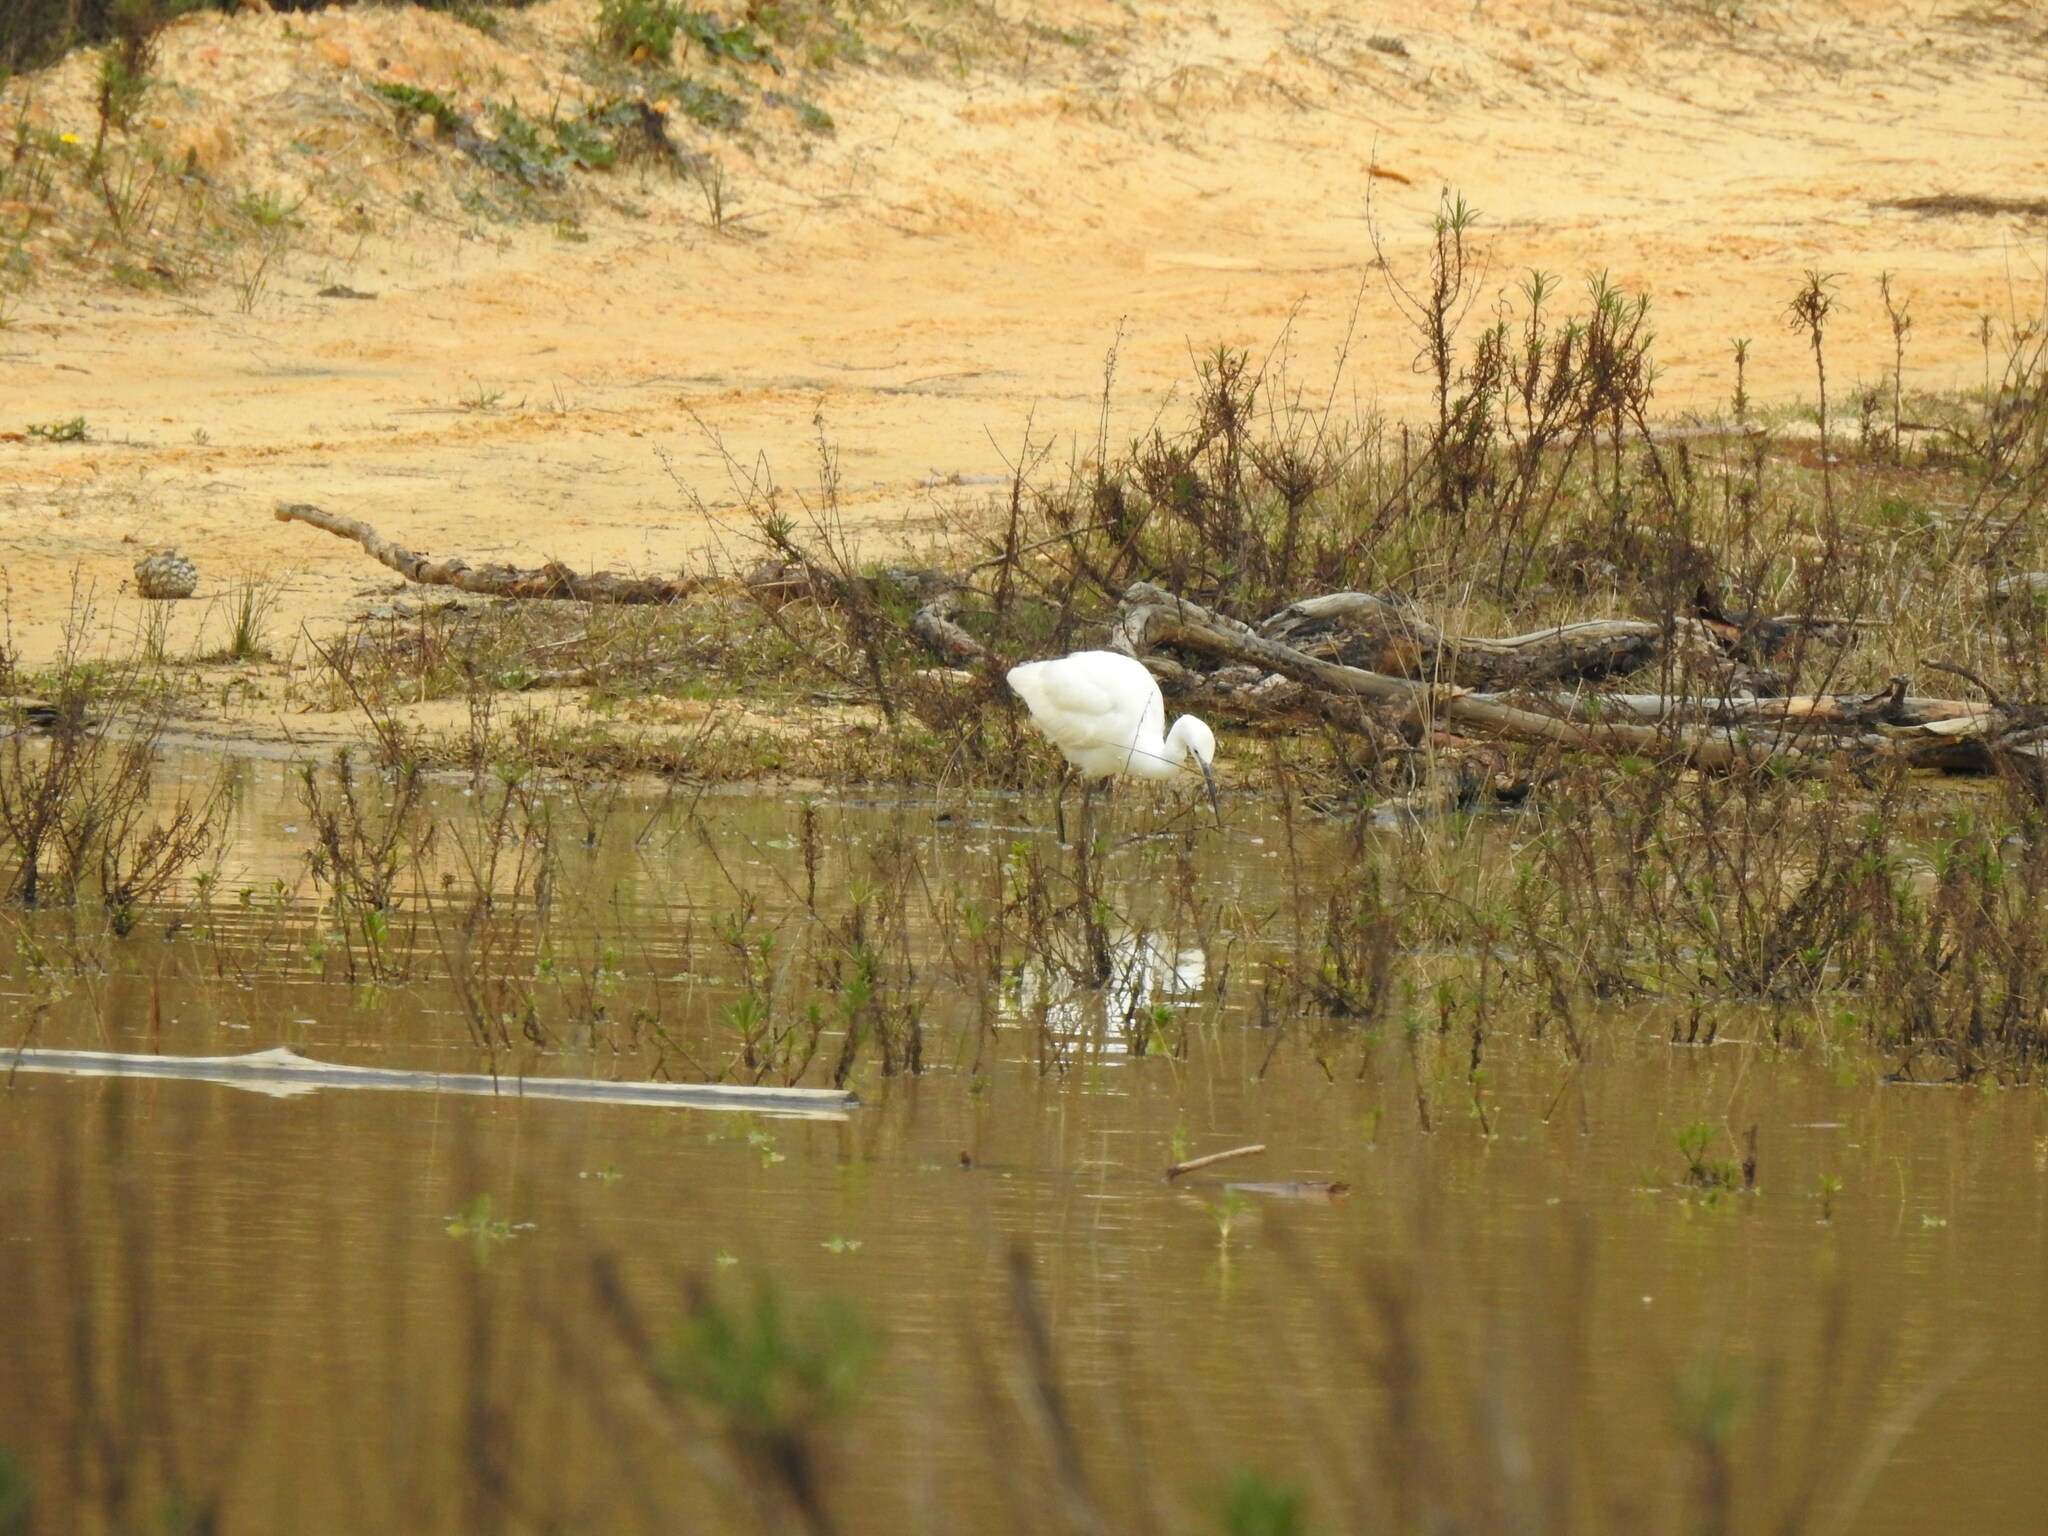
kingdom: Animalia
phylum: Chordata
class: Aves
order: Pelecaniformes
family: Ardeidae
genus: Egretta
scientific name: Egretta garzetta
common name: Little egret
